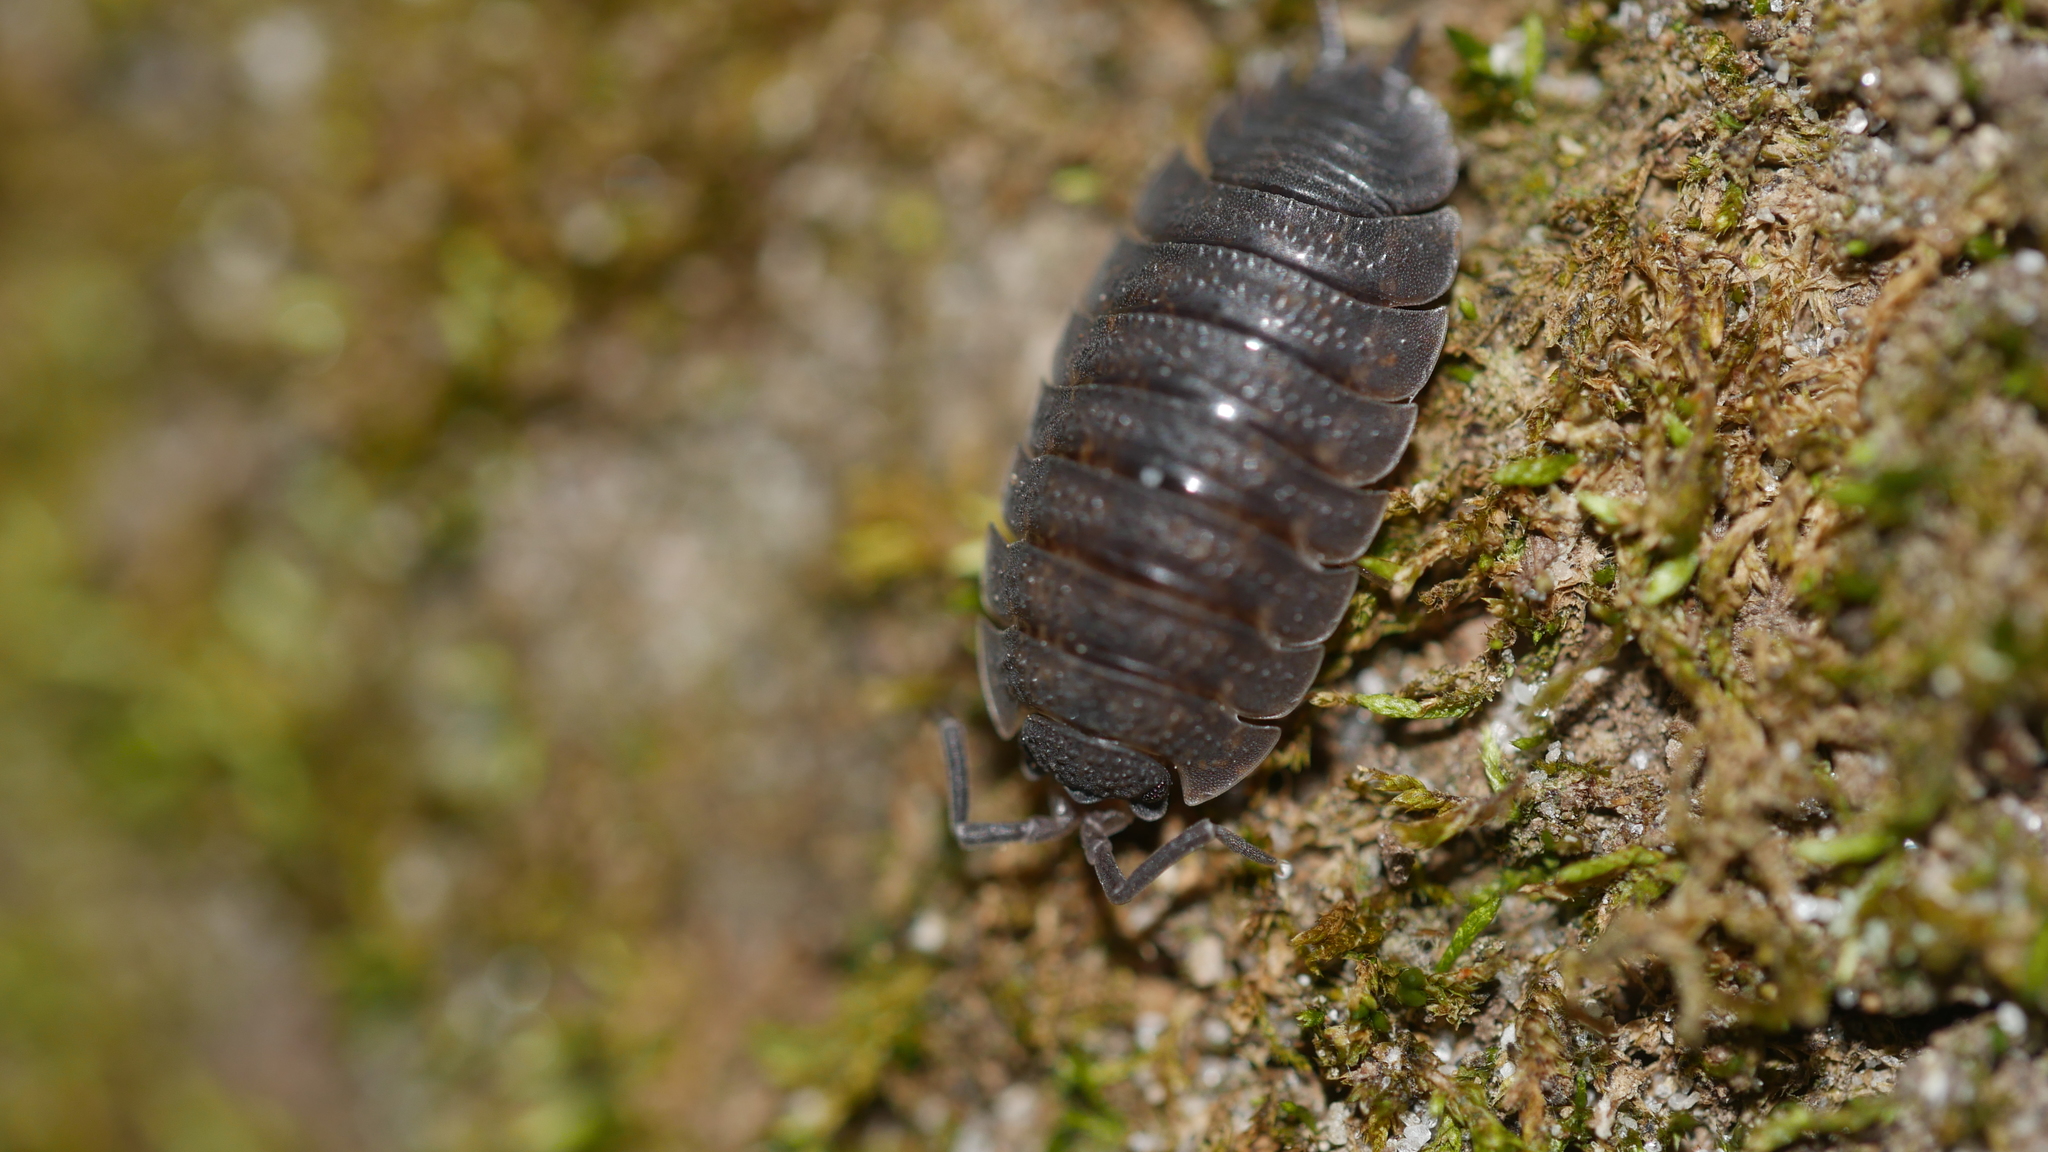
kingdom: Animalia
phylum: Arthropoda
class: Malacostraca
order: Isopoda
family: Porcellionidae
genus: Porcellio
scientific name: Porcellio scaber
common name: Common rough woodlouse
